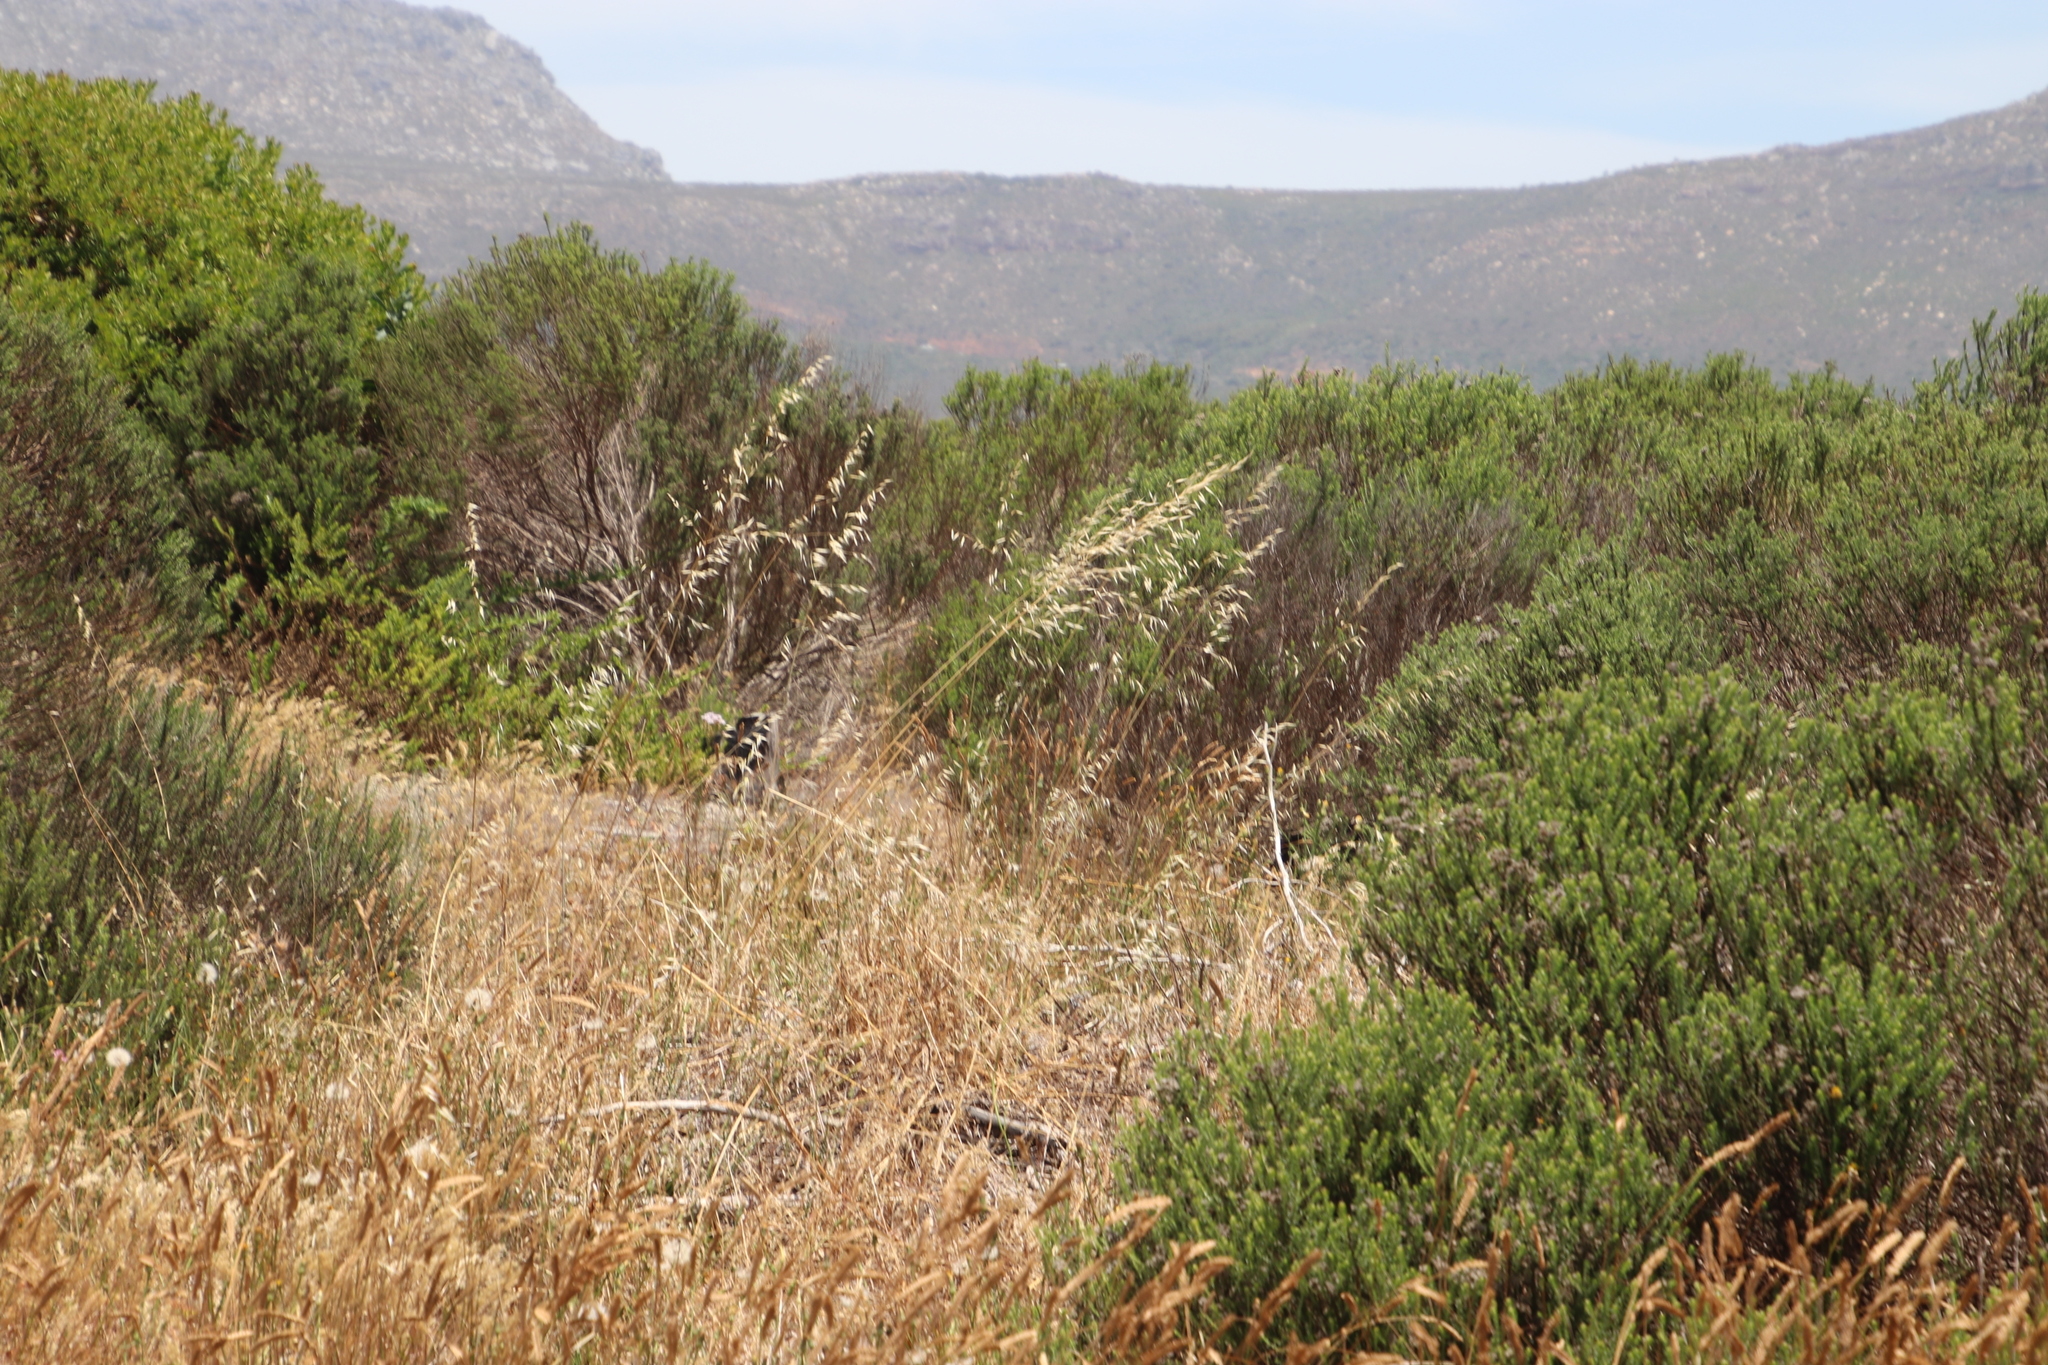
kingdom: Plantae
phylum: Tracheophyta
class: Liliopsida
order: Poales
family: Poaceae
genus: Avena
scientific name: Avena fatua
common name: Wild oat
